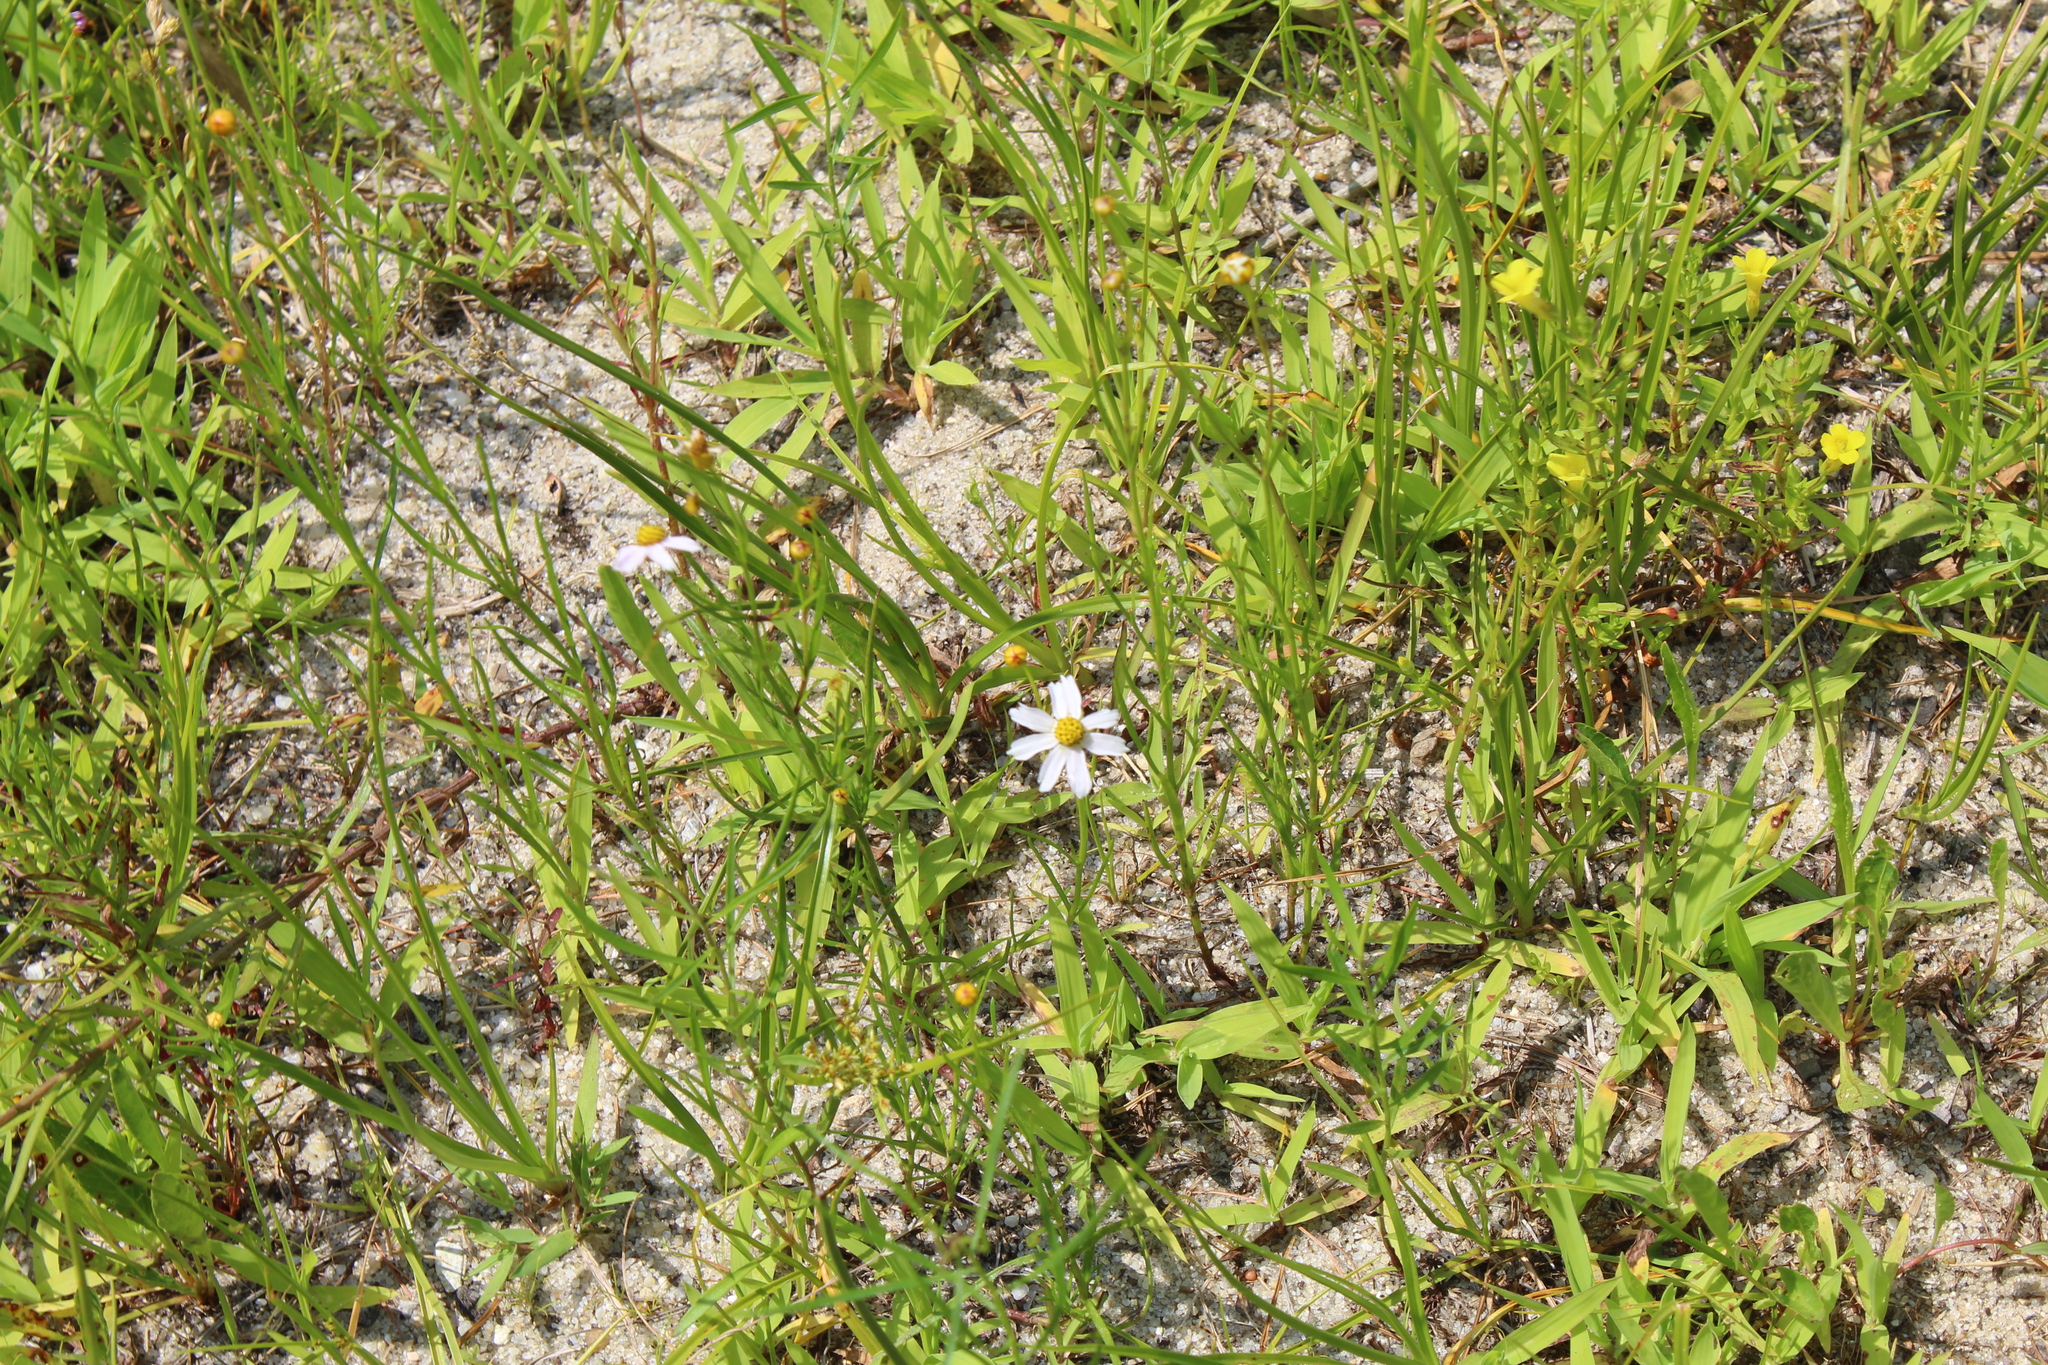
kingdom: Plantae
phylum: Tracheophyta
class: Magnoliopsida
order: Asterales
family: Asteraceae
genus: Coreopsis
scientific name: Coreopsis rosea
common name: Pink coreopsis
